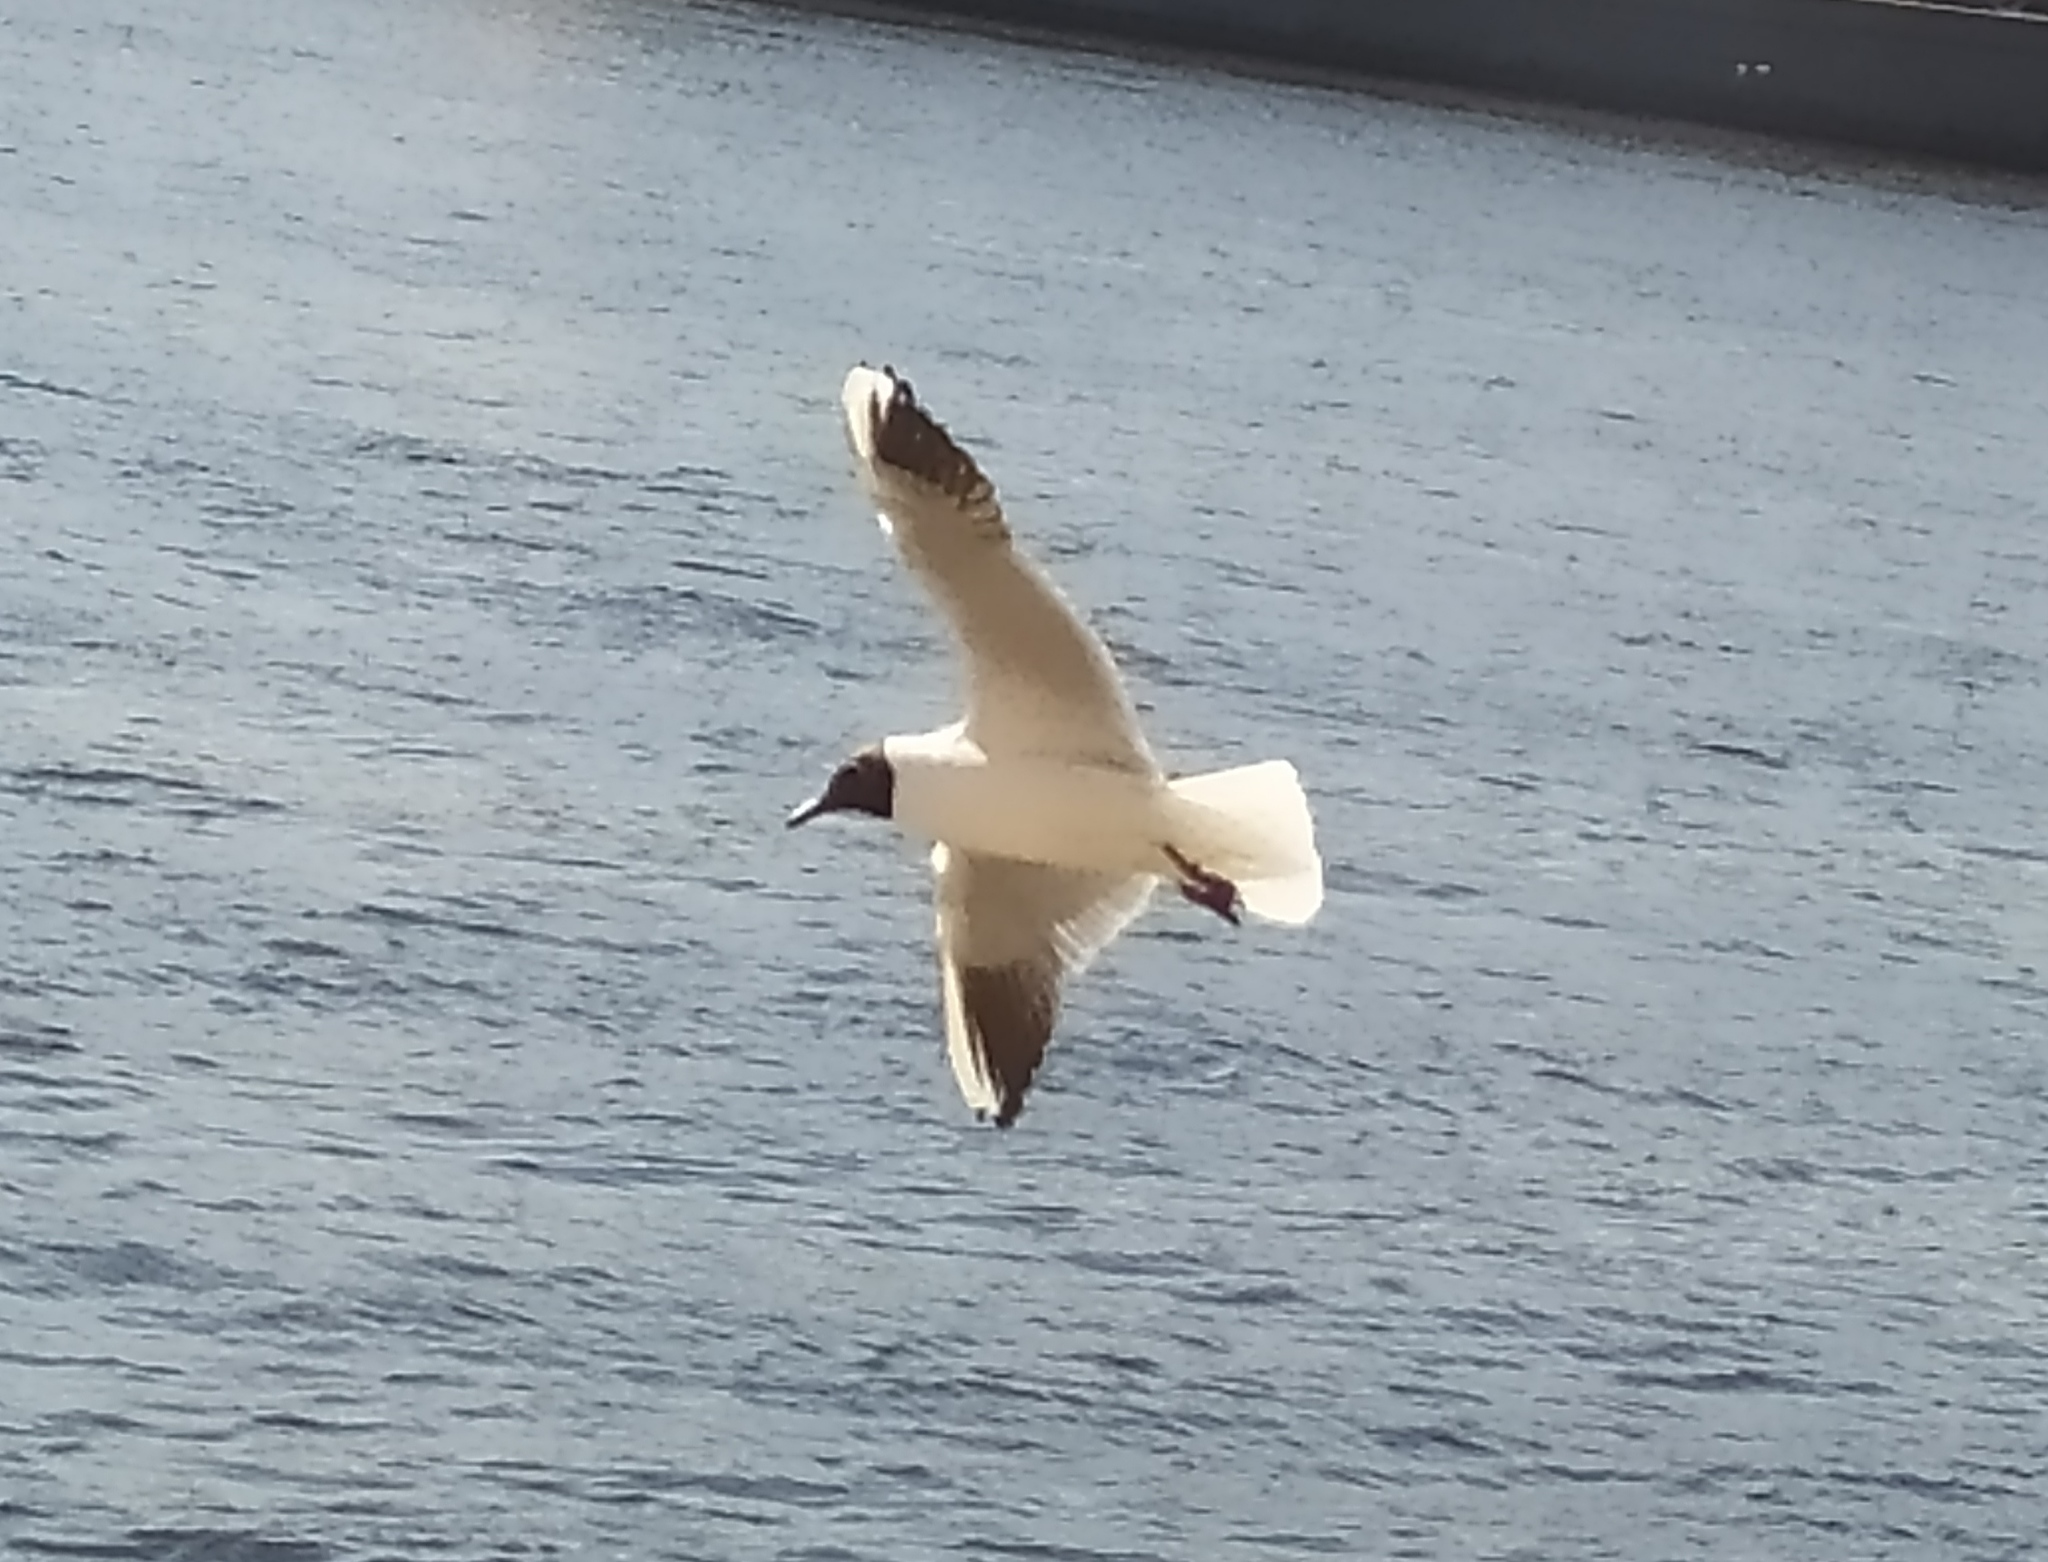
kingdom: Animalia
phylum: Chordata
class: Aves
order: Charadriiformes
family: Laridae
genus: Chroicocephalus
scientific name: Chroicocephalus ridibundus
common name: Black-headed gull
